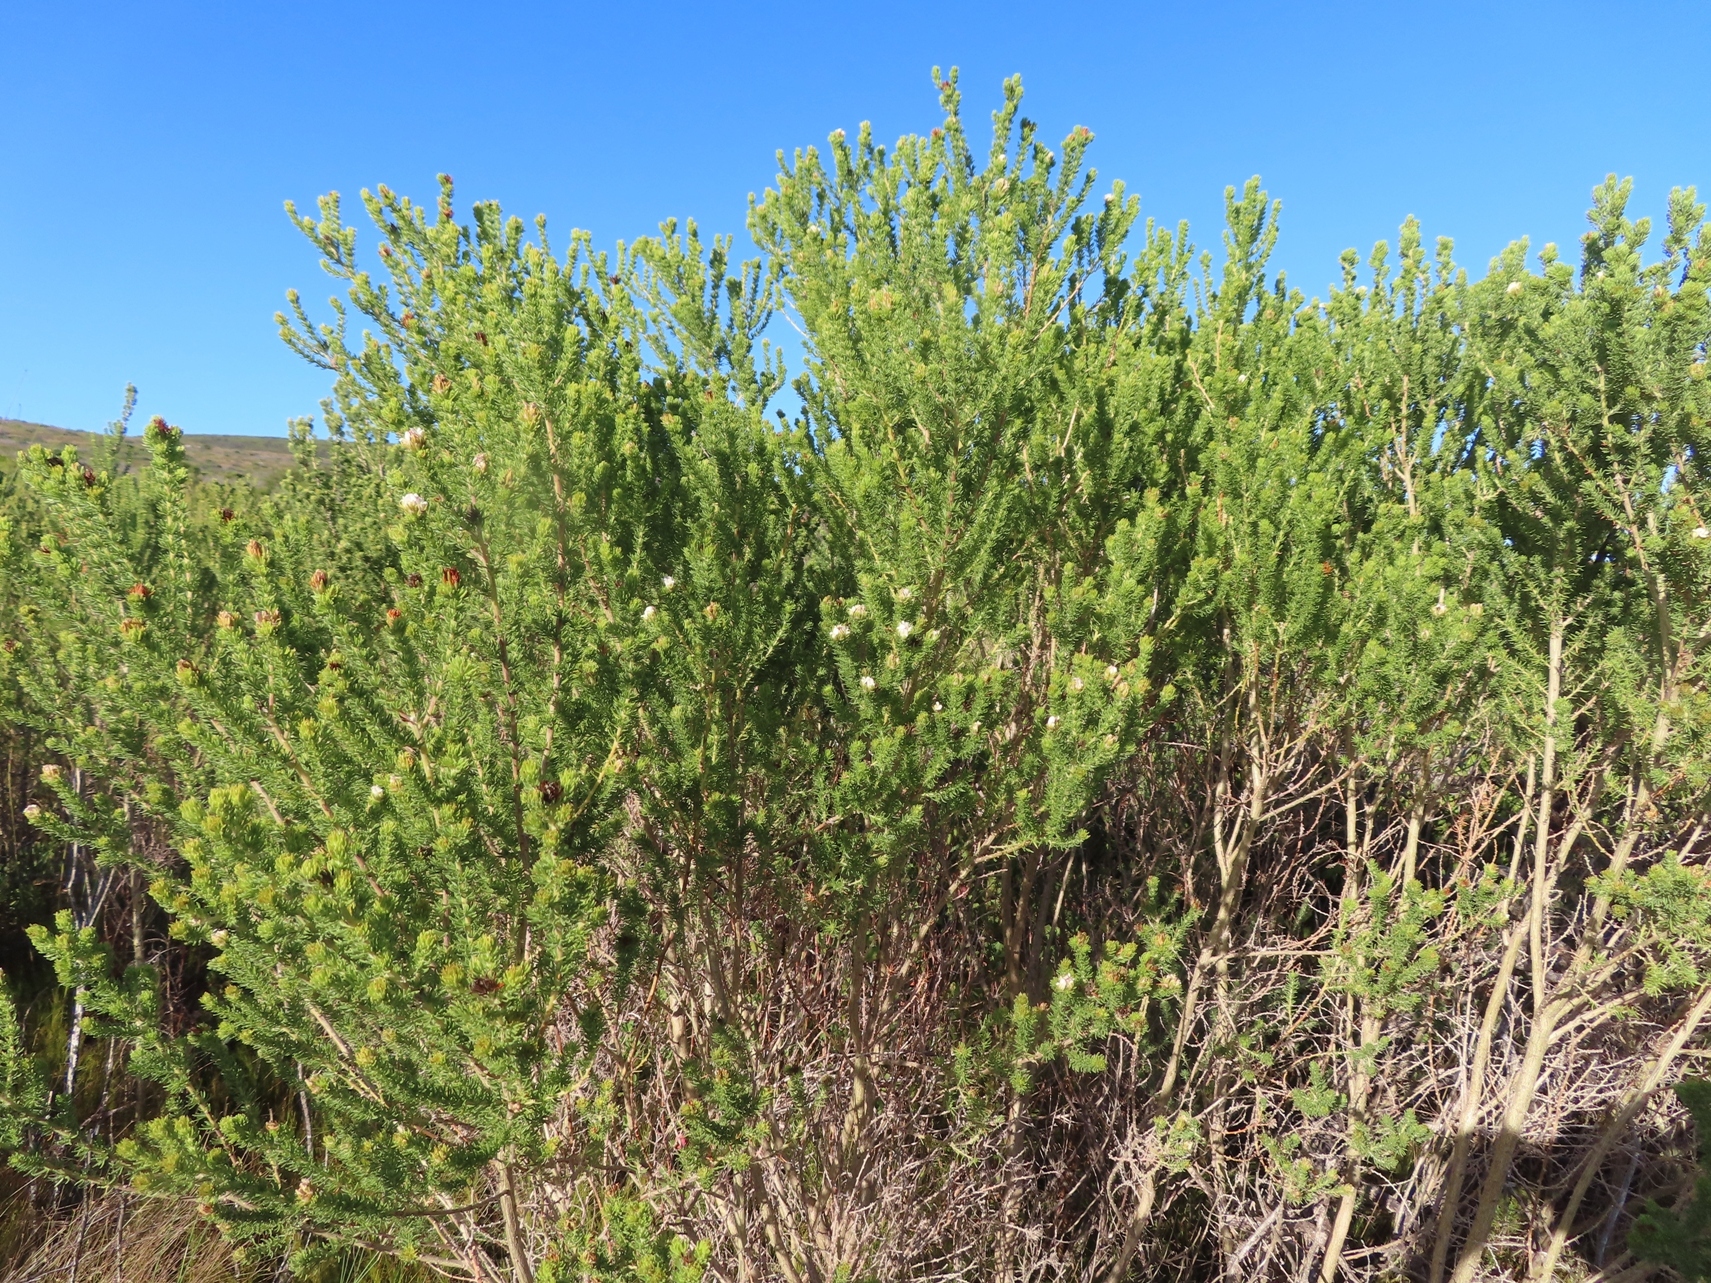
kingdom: Plantae
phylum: Tracheophyta
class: Magnoliopsida
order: Fabales
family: Fabaceae
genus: Aspalathus
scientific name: Aspalathus forbesii
